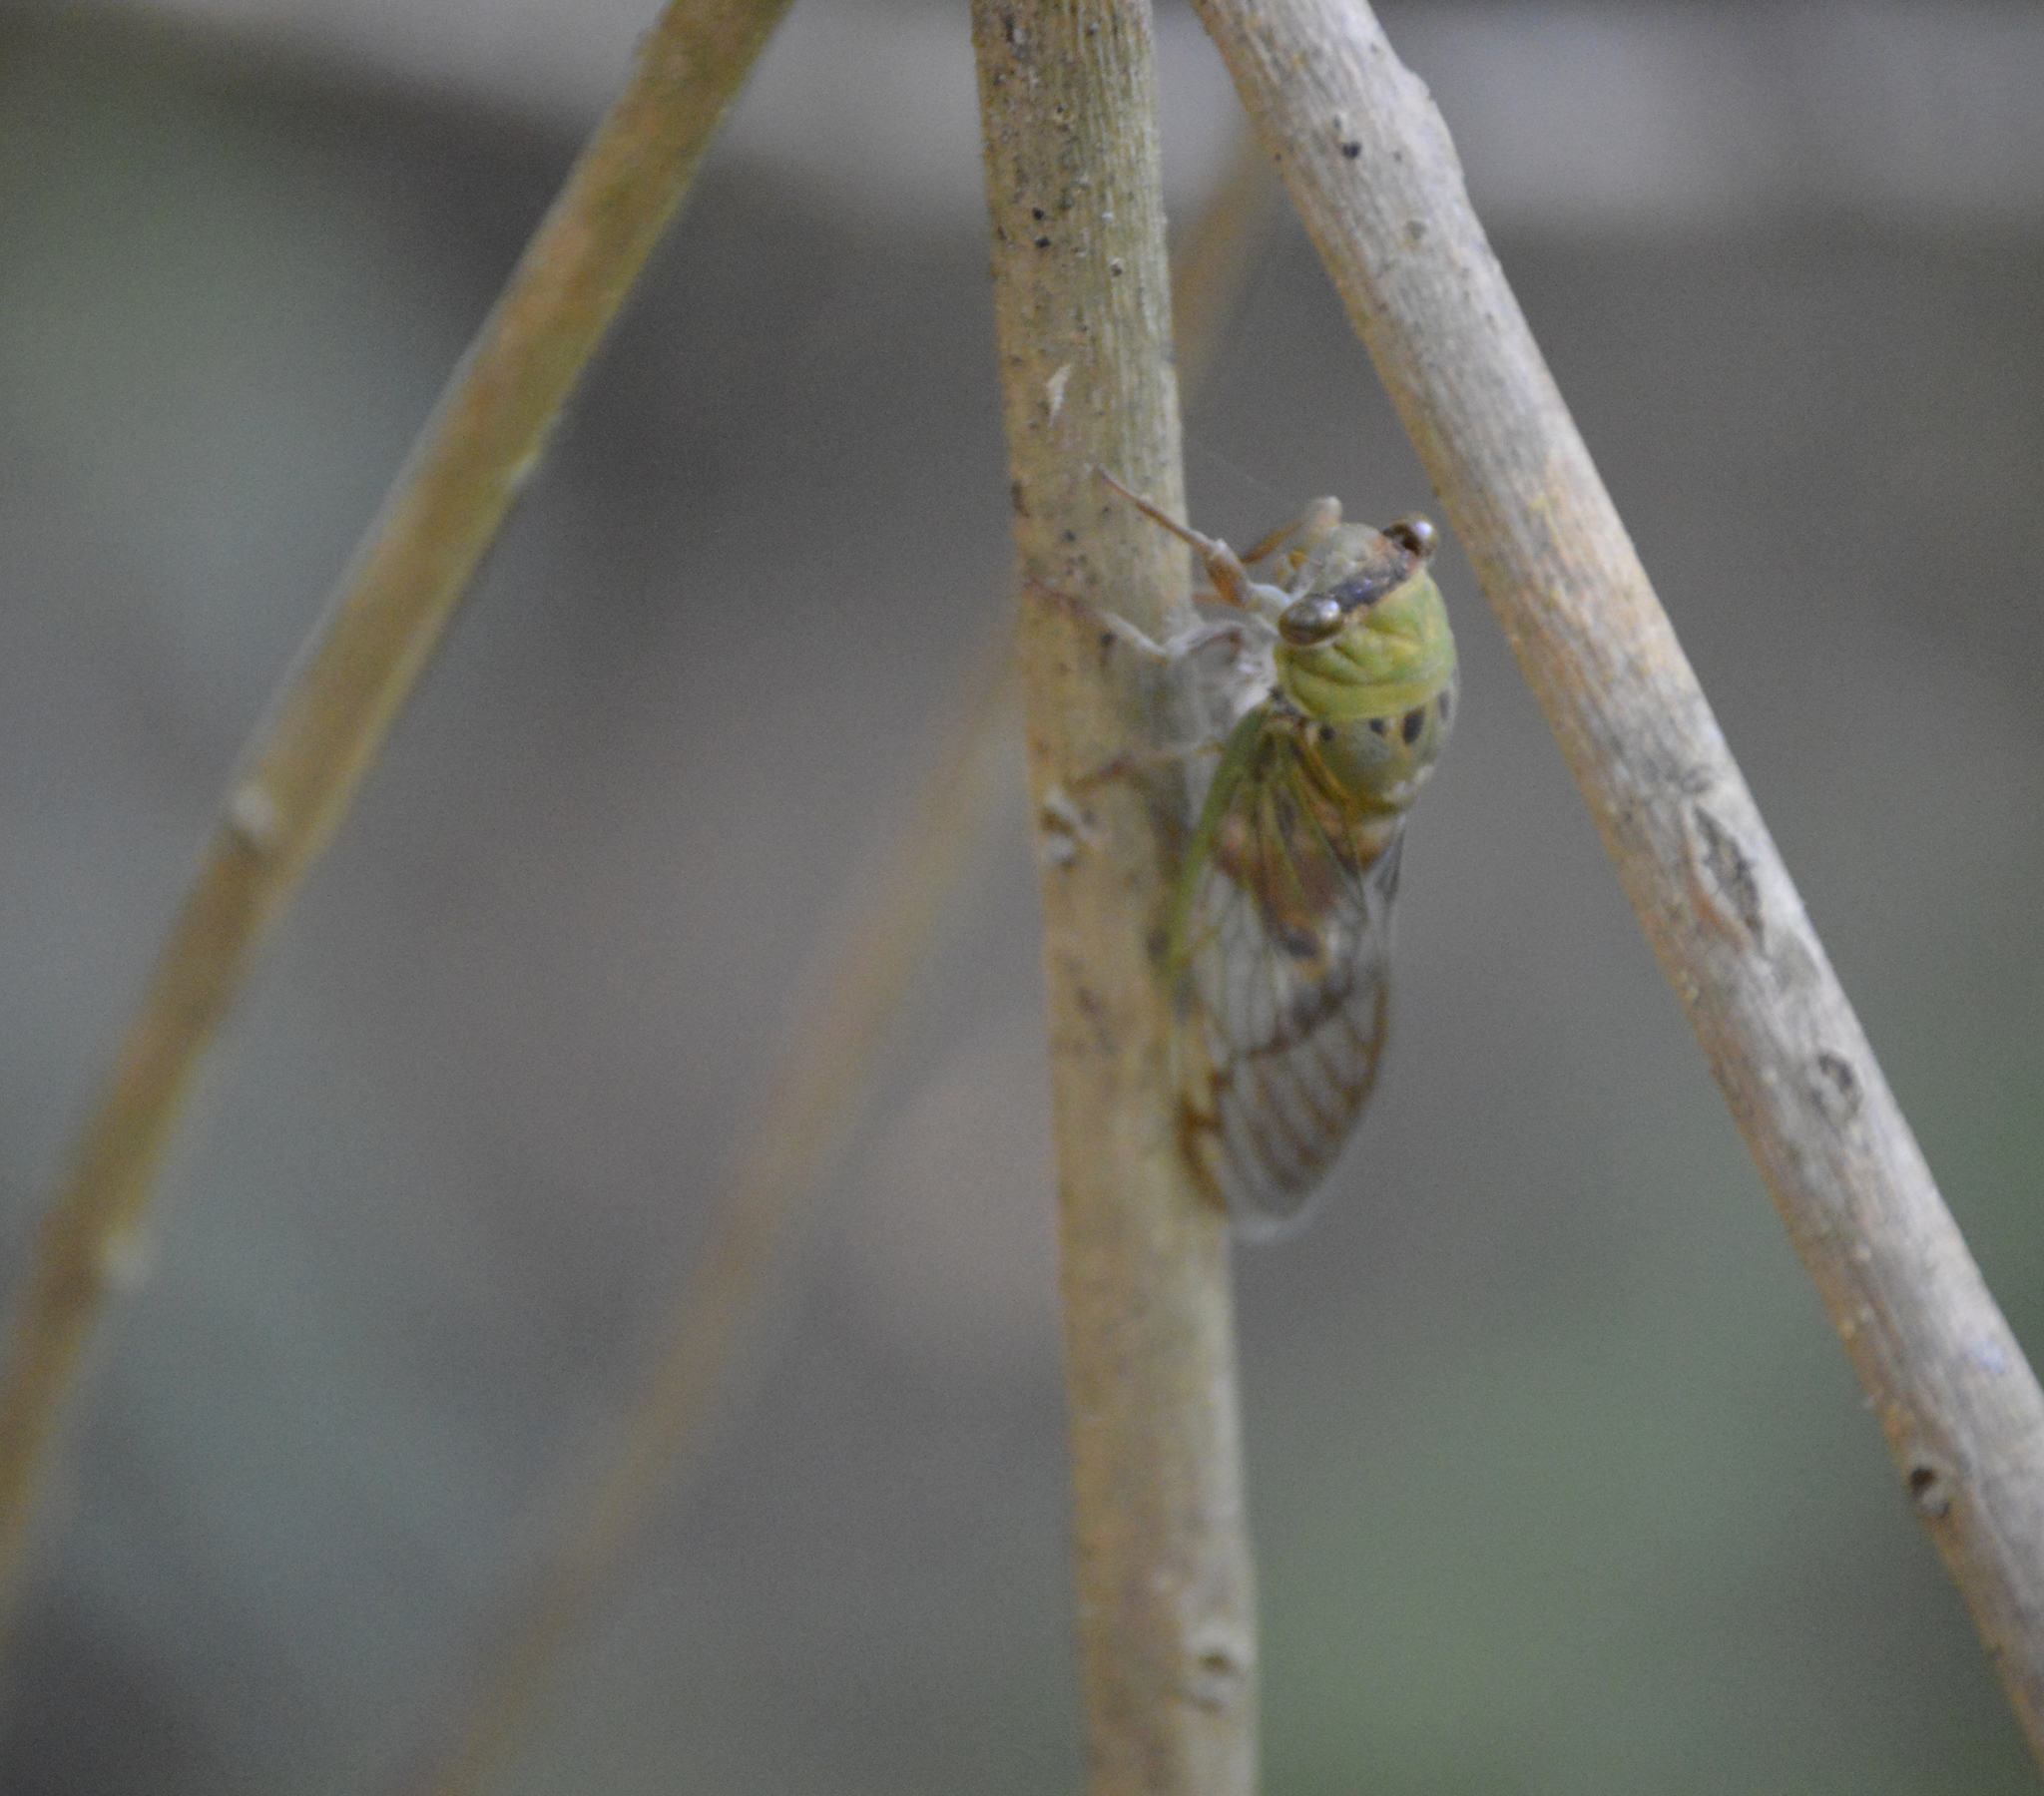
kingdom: Animalia
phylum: Arthropoda
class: Insecta
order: Hemiptera
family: Cicadidae
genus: Neotibicen
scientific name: Neotibicen superbus
